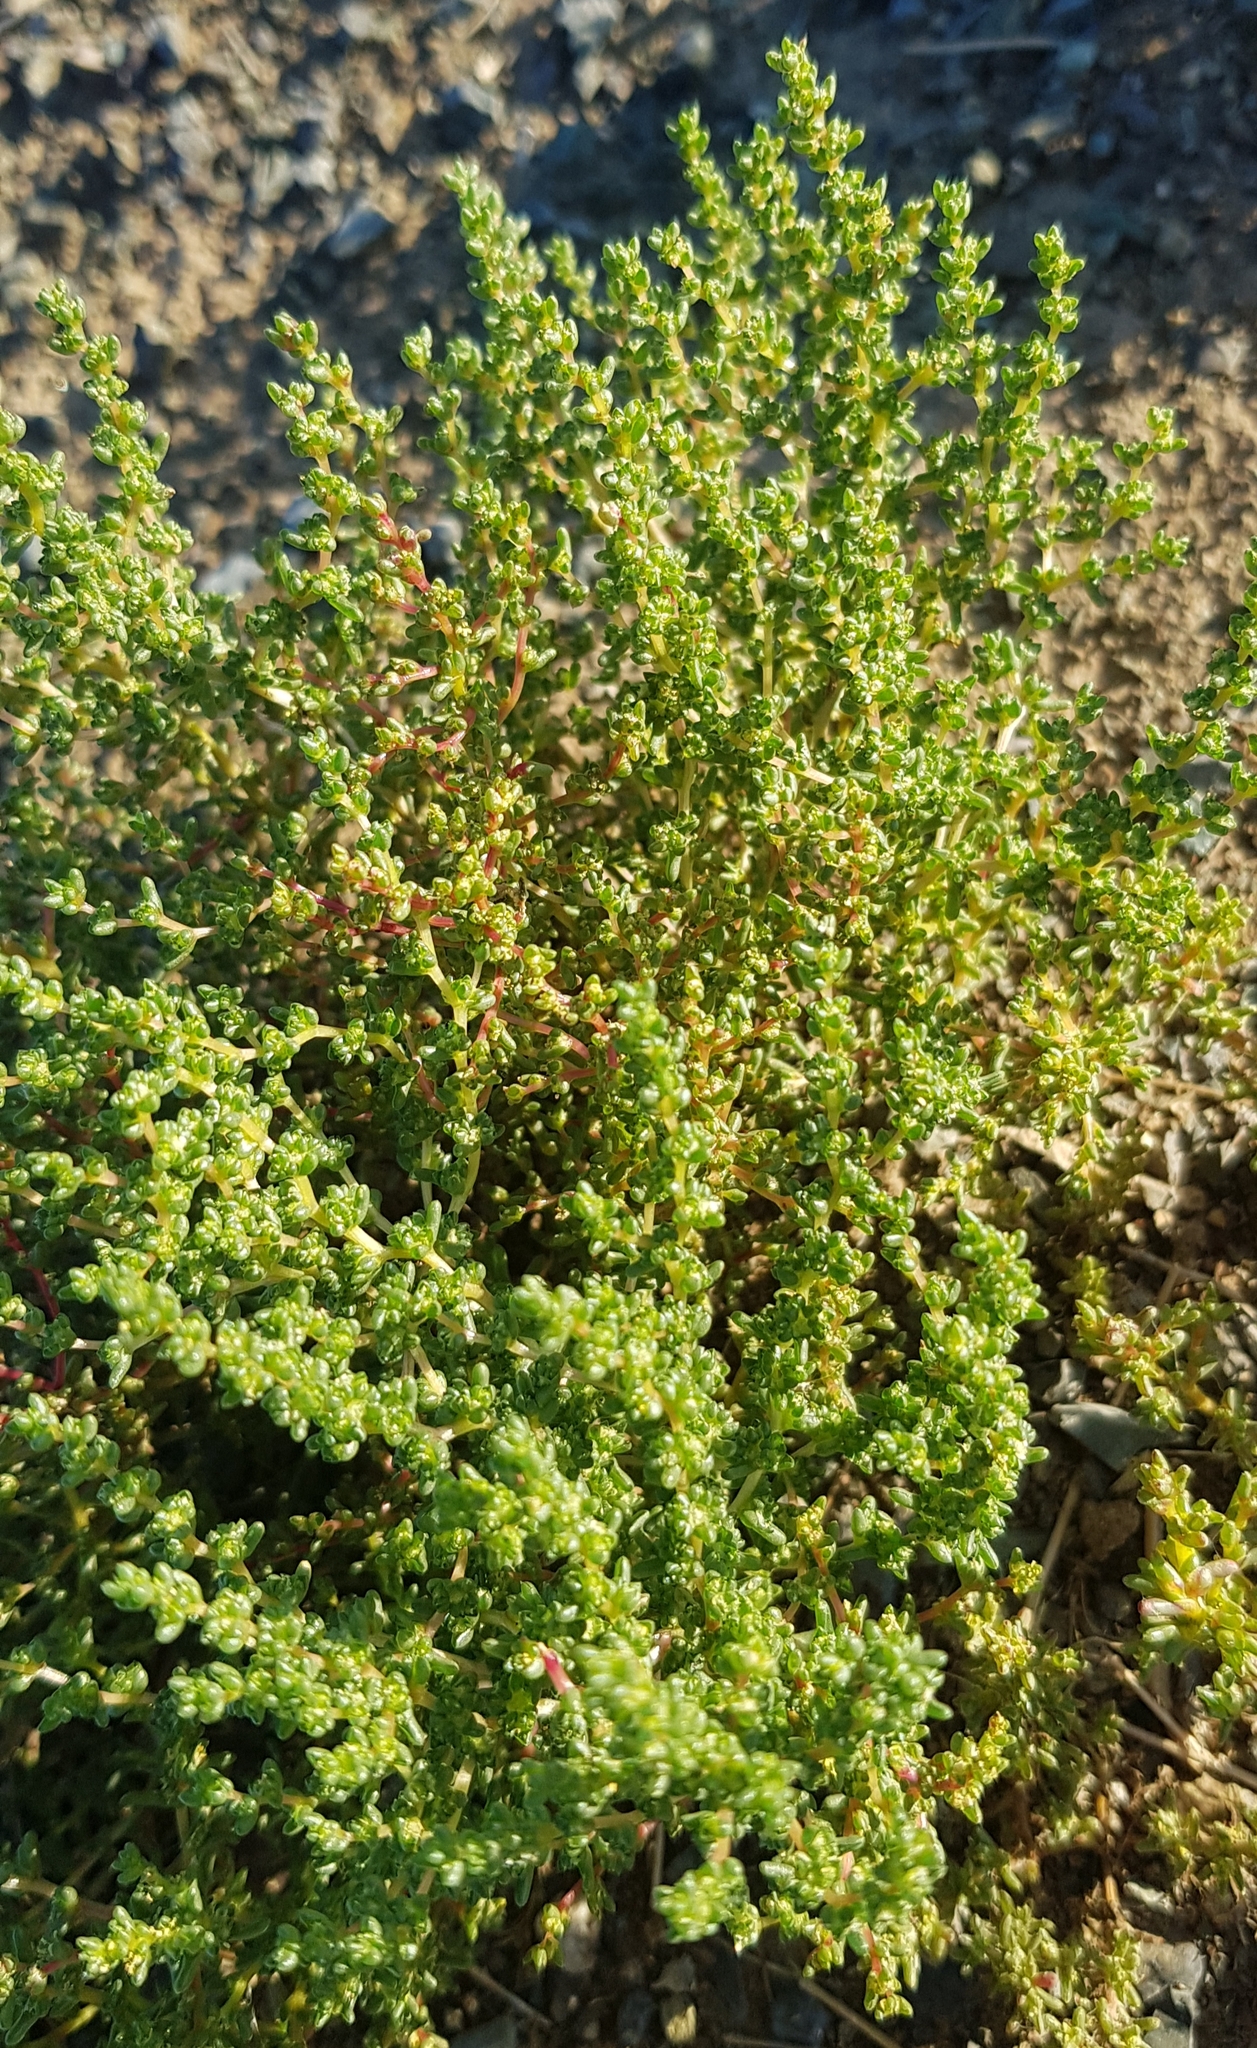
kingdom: Plantae
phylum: Tracheophyta
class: Magnoliopsida
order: Caryophyllales
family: Amaranthaceae
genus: Halogeton
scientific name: Halogeton arachnoides
